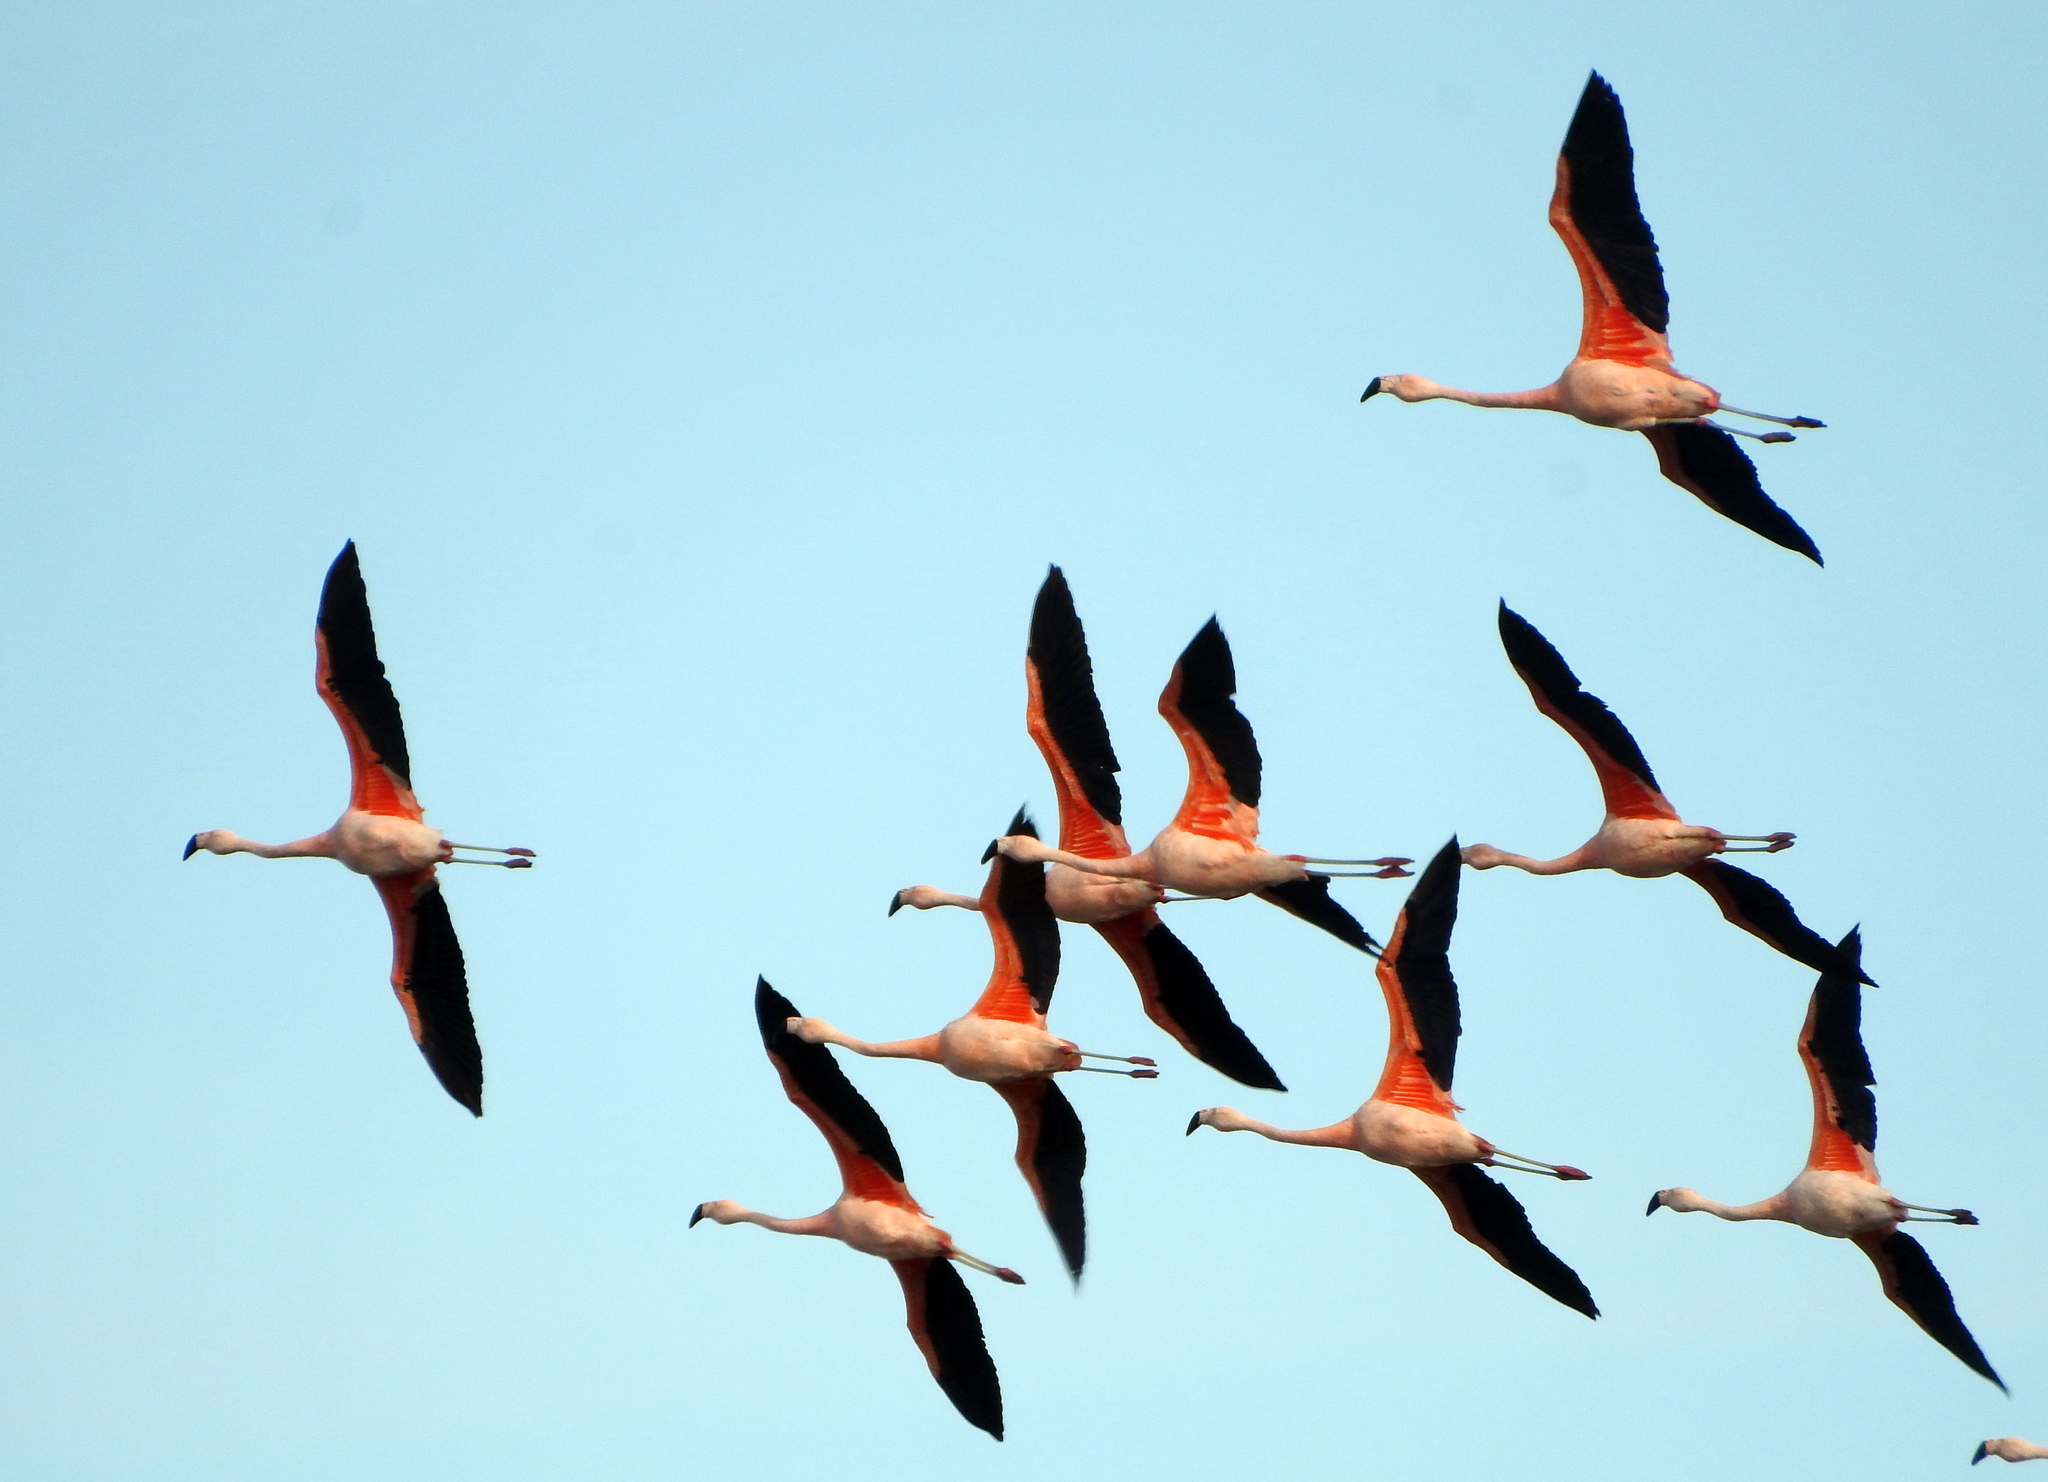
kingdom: Animalia
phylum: Chordata
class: Aves
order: Phoenicopteriformes
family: Phoenicopteridae
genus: Phoenicopterus
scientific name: Phoenicopterus chilensis
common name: Chilean flamingo
